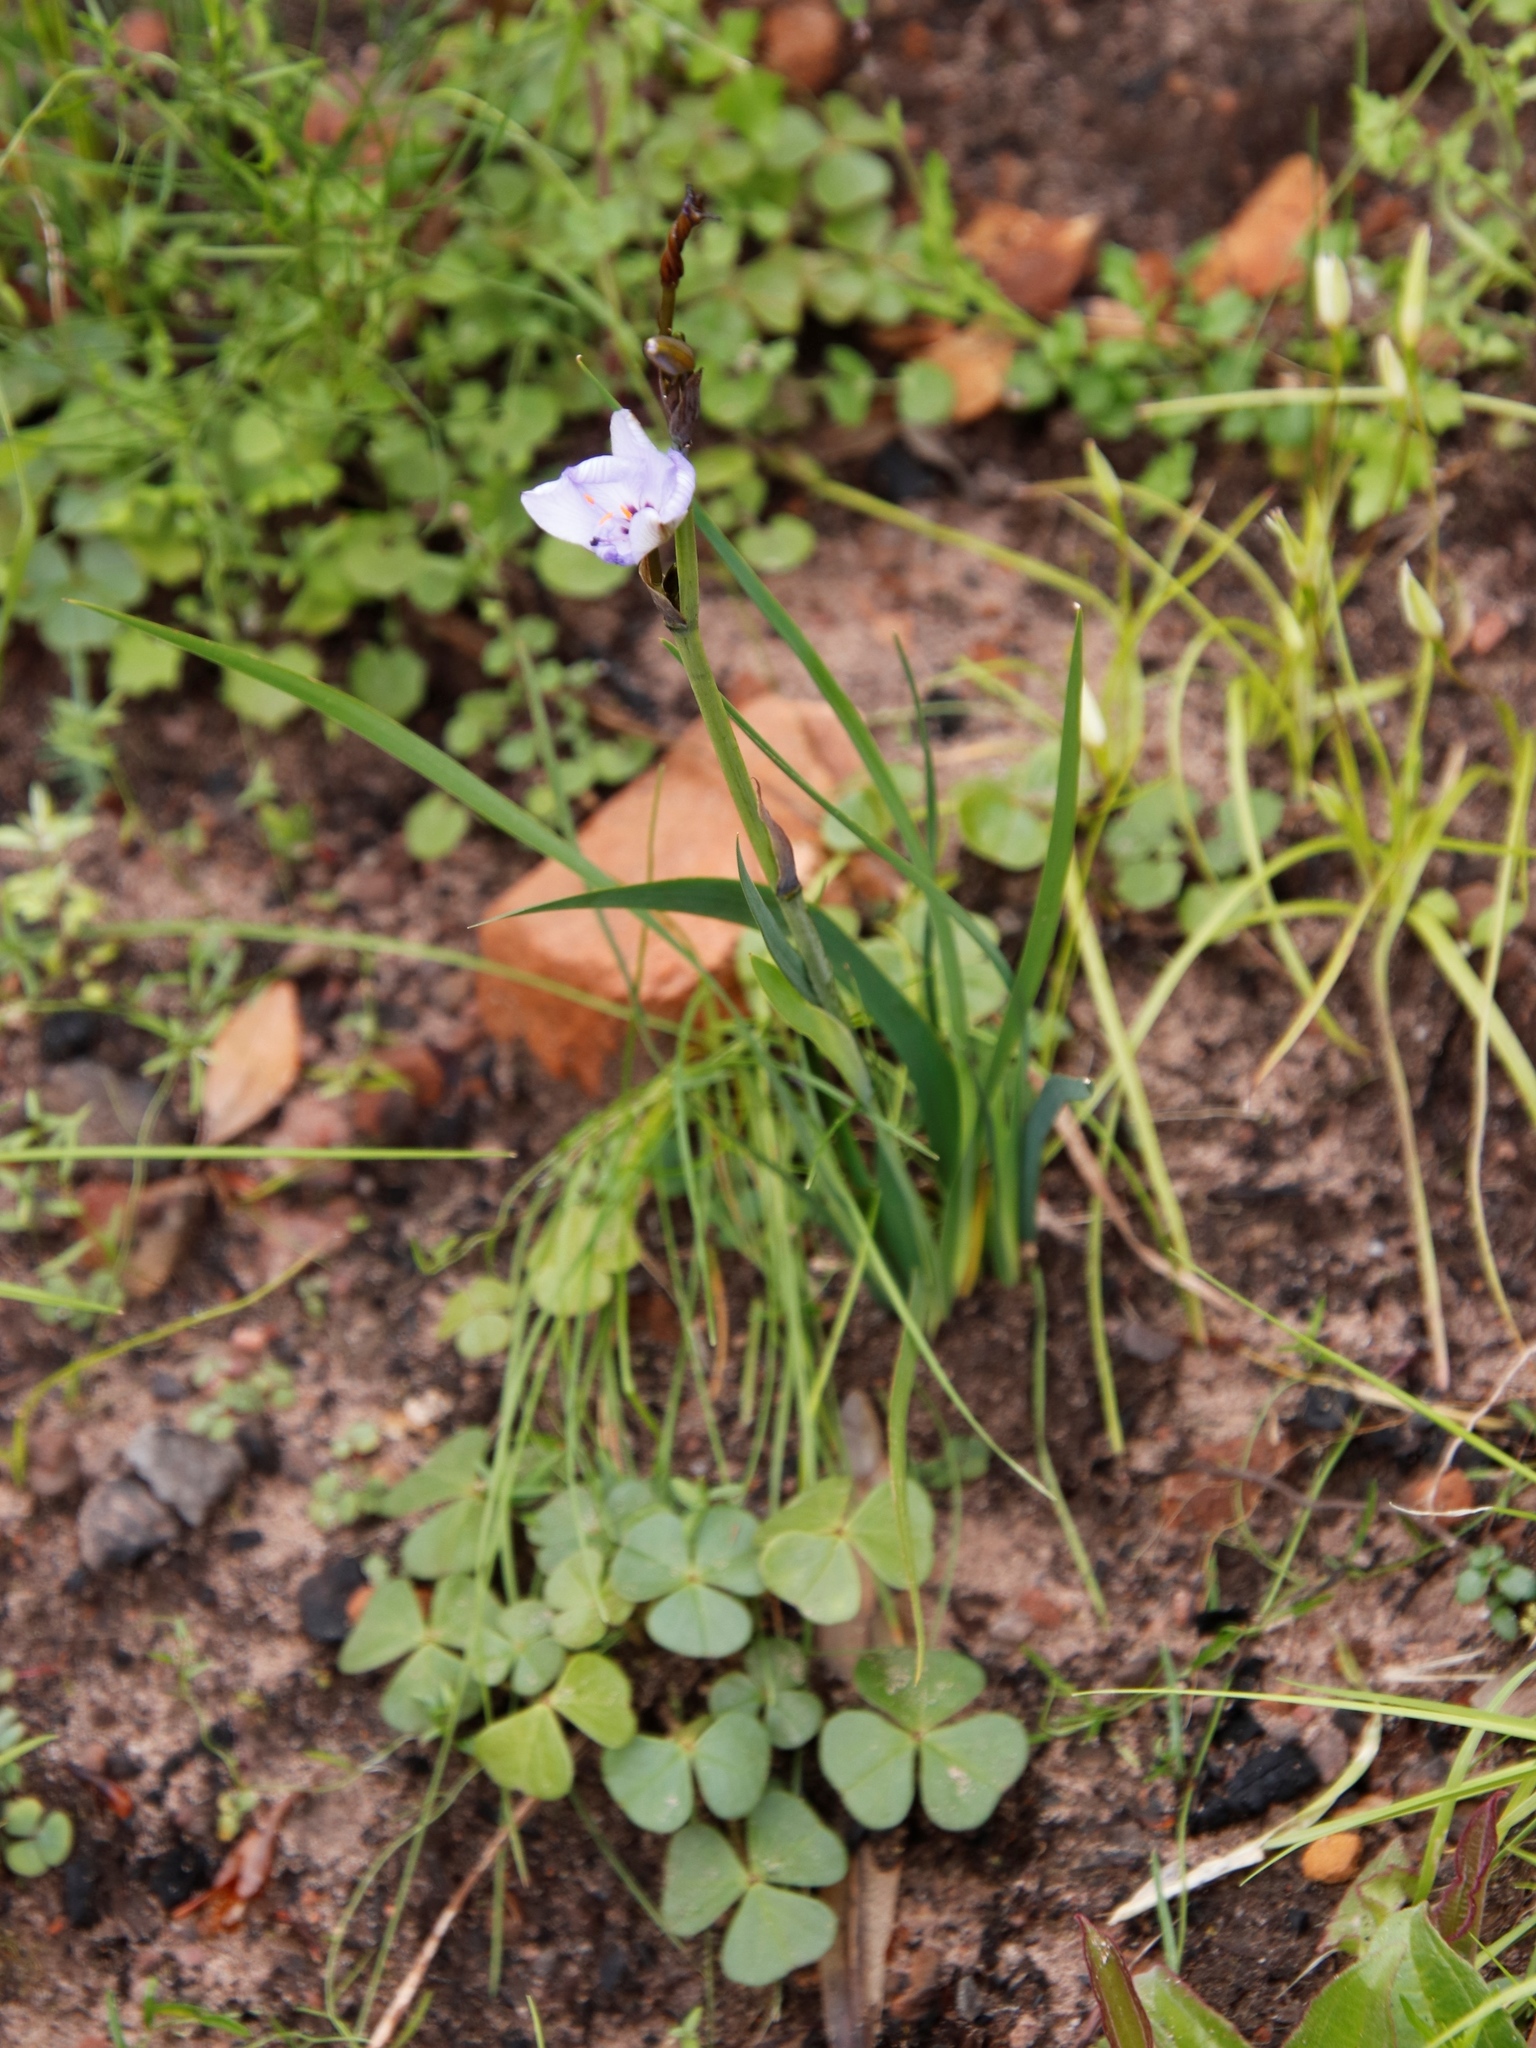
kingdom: Plantae
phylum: Tracheophyta
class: Liliopsida
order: Asparagales
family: Iridaceae
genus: Aristea
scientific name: Aristea spiralis
